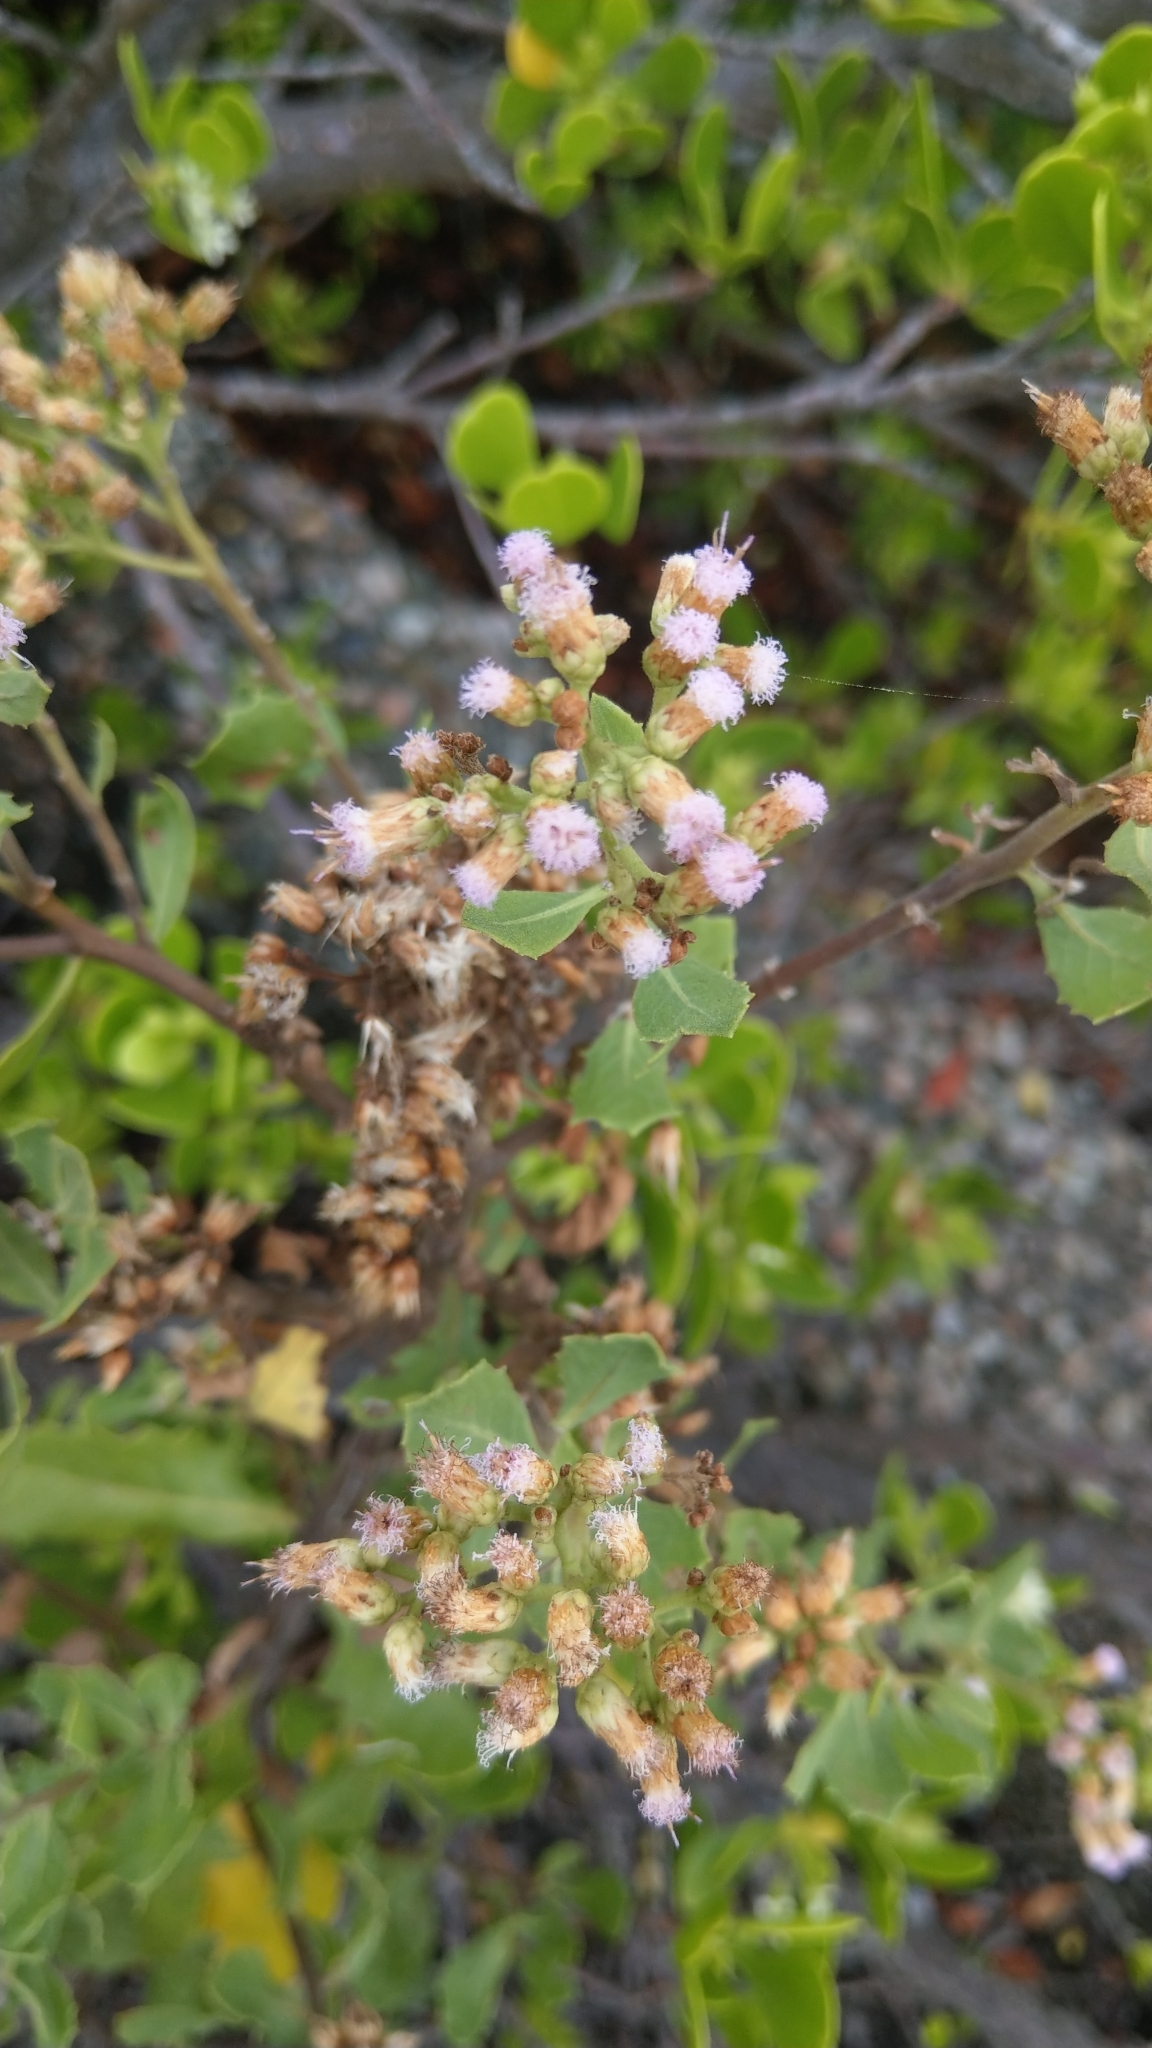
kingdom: Plantae
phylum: Tracheophyta
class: Magnoliopsida
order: Asterales
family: Asteraceae
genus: Pluchea
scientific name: Pluchea indica
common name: Indian fleabane
